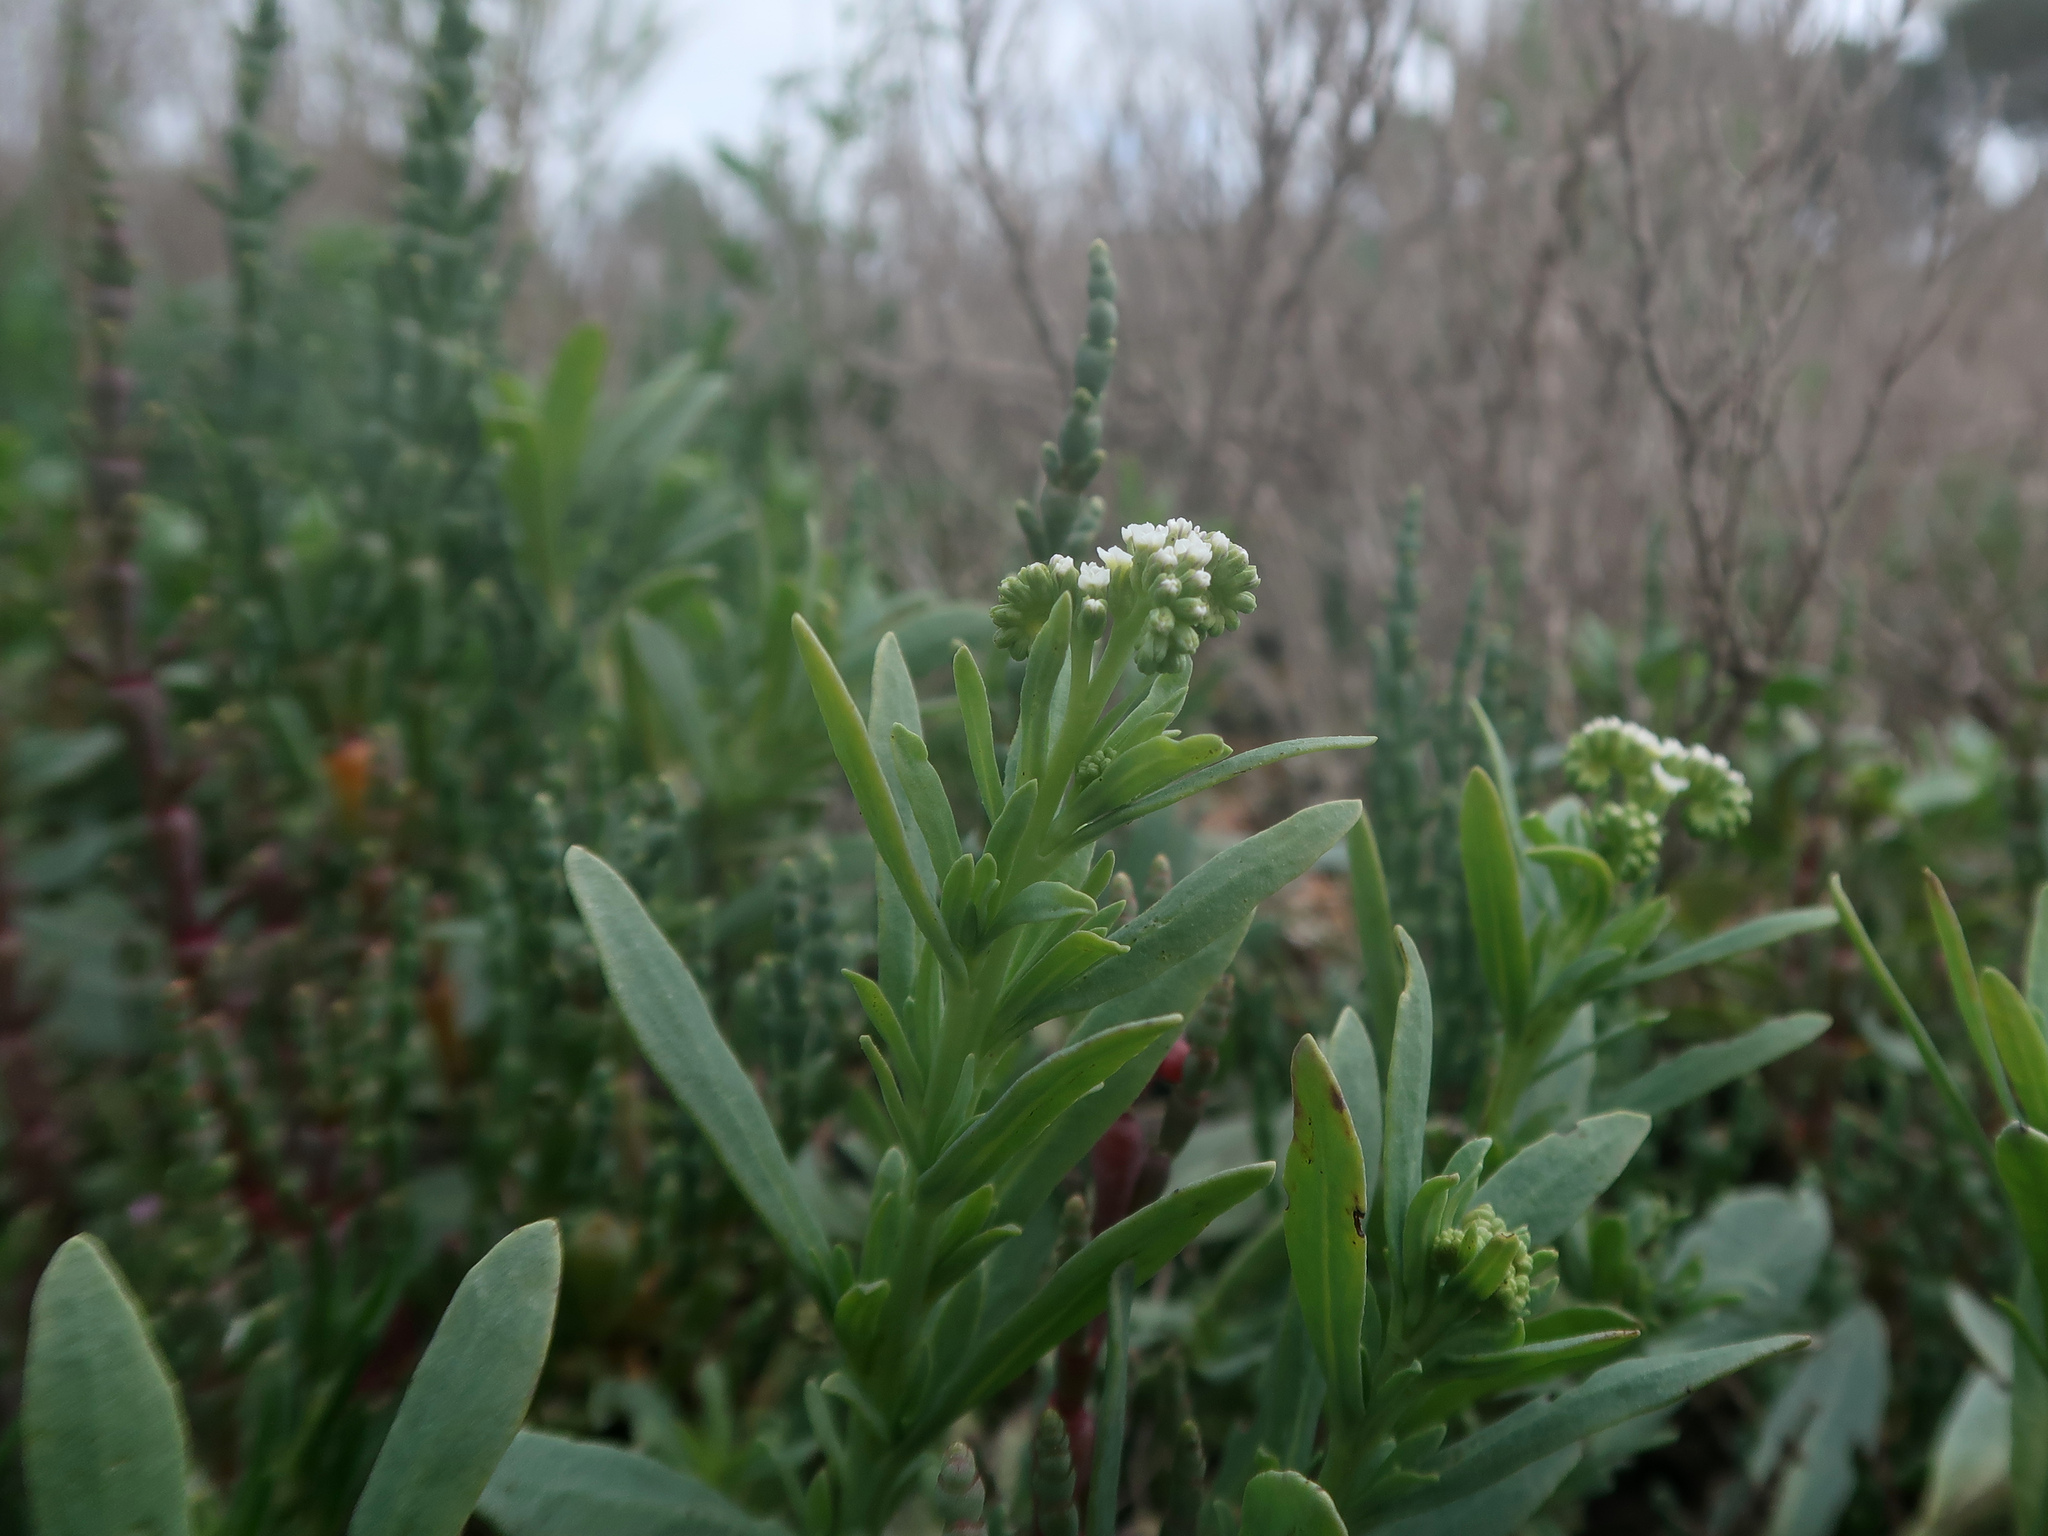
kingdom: Plantae
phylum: Tracheophyta
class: Magnoliopsida
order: Boraginales
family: Heliotropiaceae
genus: Heliotropium
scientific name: Heliotropium curassavicum
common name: Seaside heliotrope
